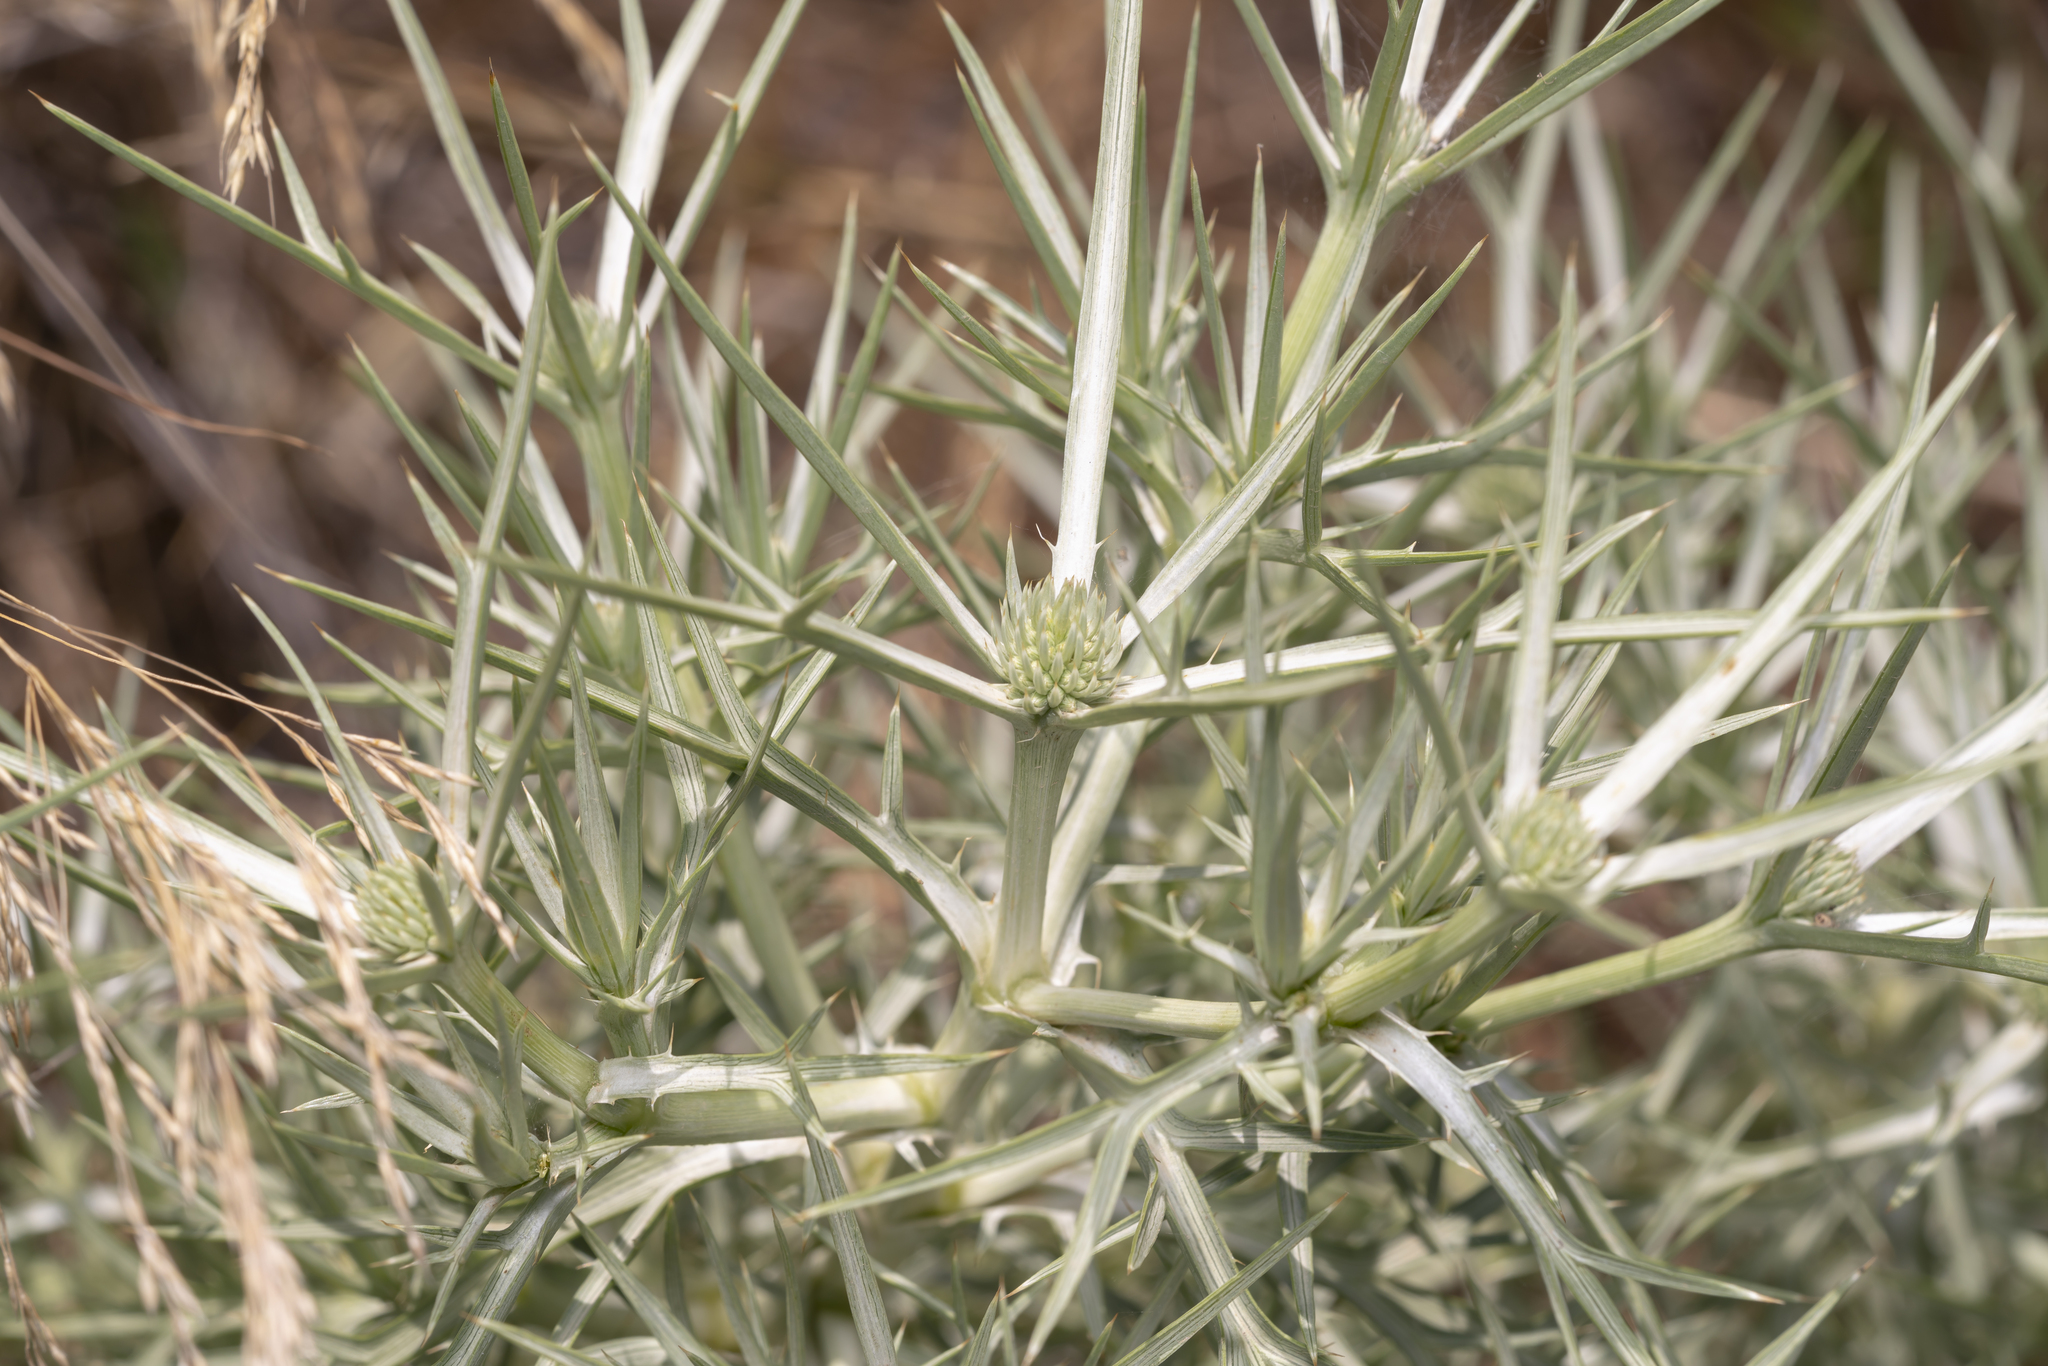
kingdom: Plantae
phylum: Tracheophyta
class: Magnoliopsida
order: Apiales
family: Apiaceae
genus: Eryngium
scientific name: Eryngium glomeratum
